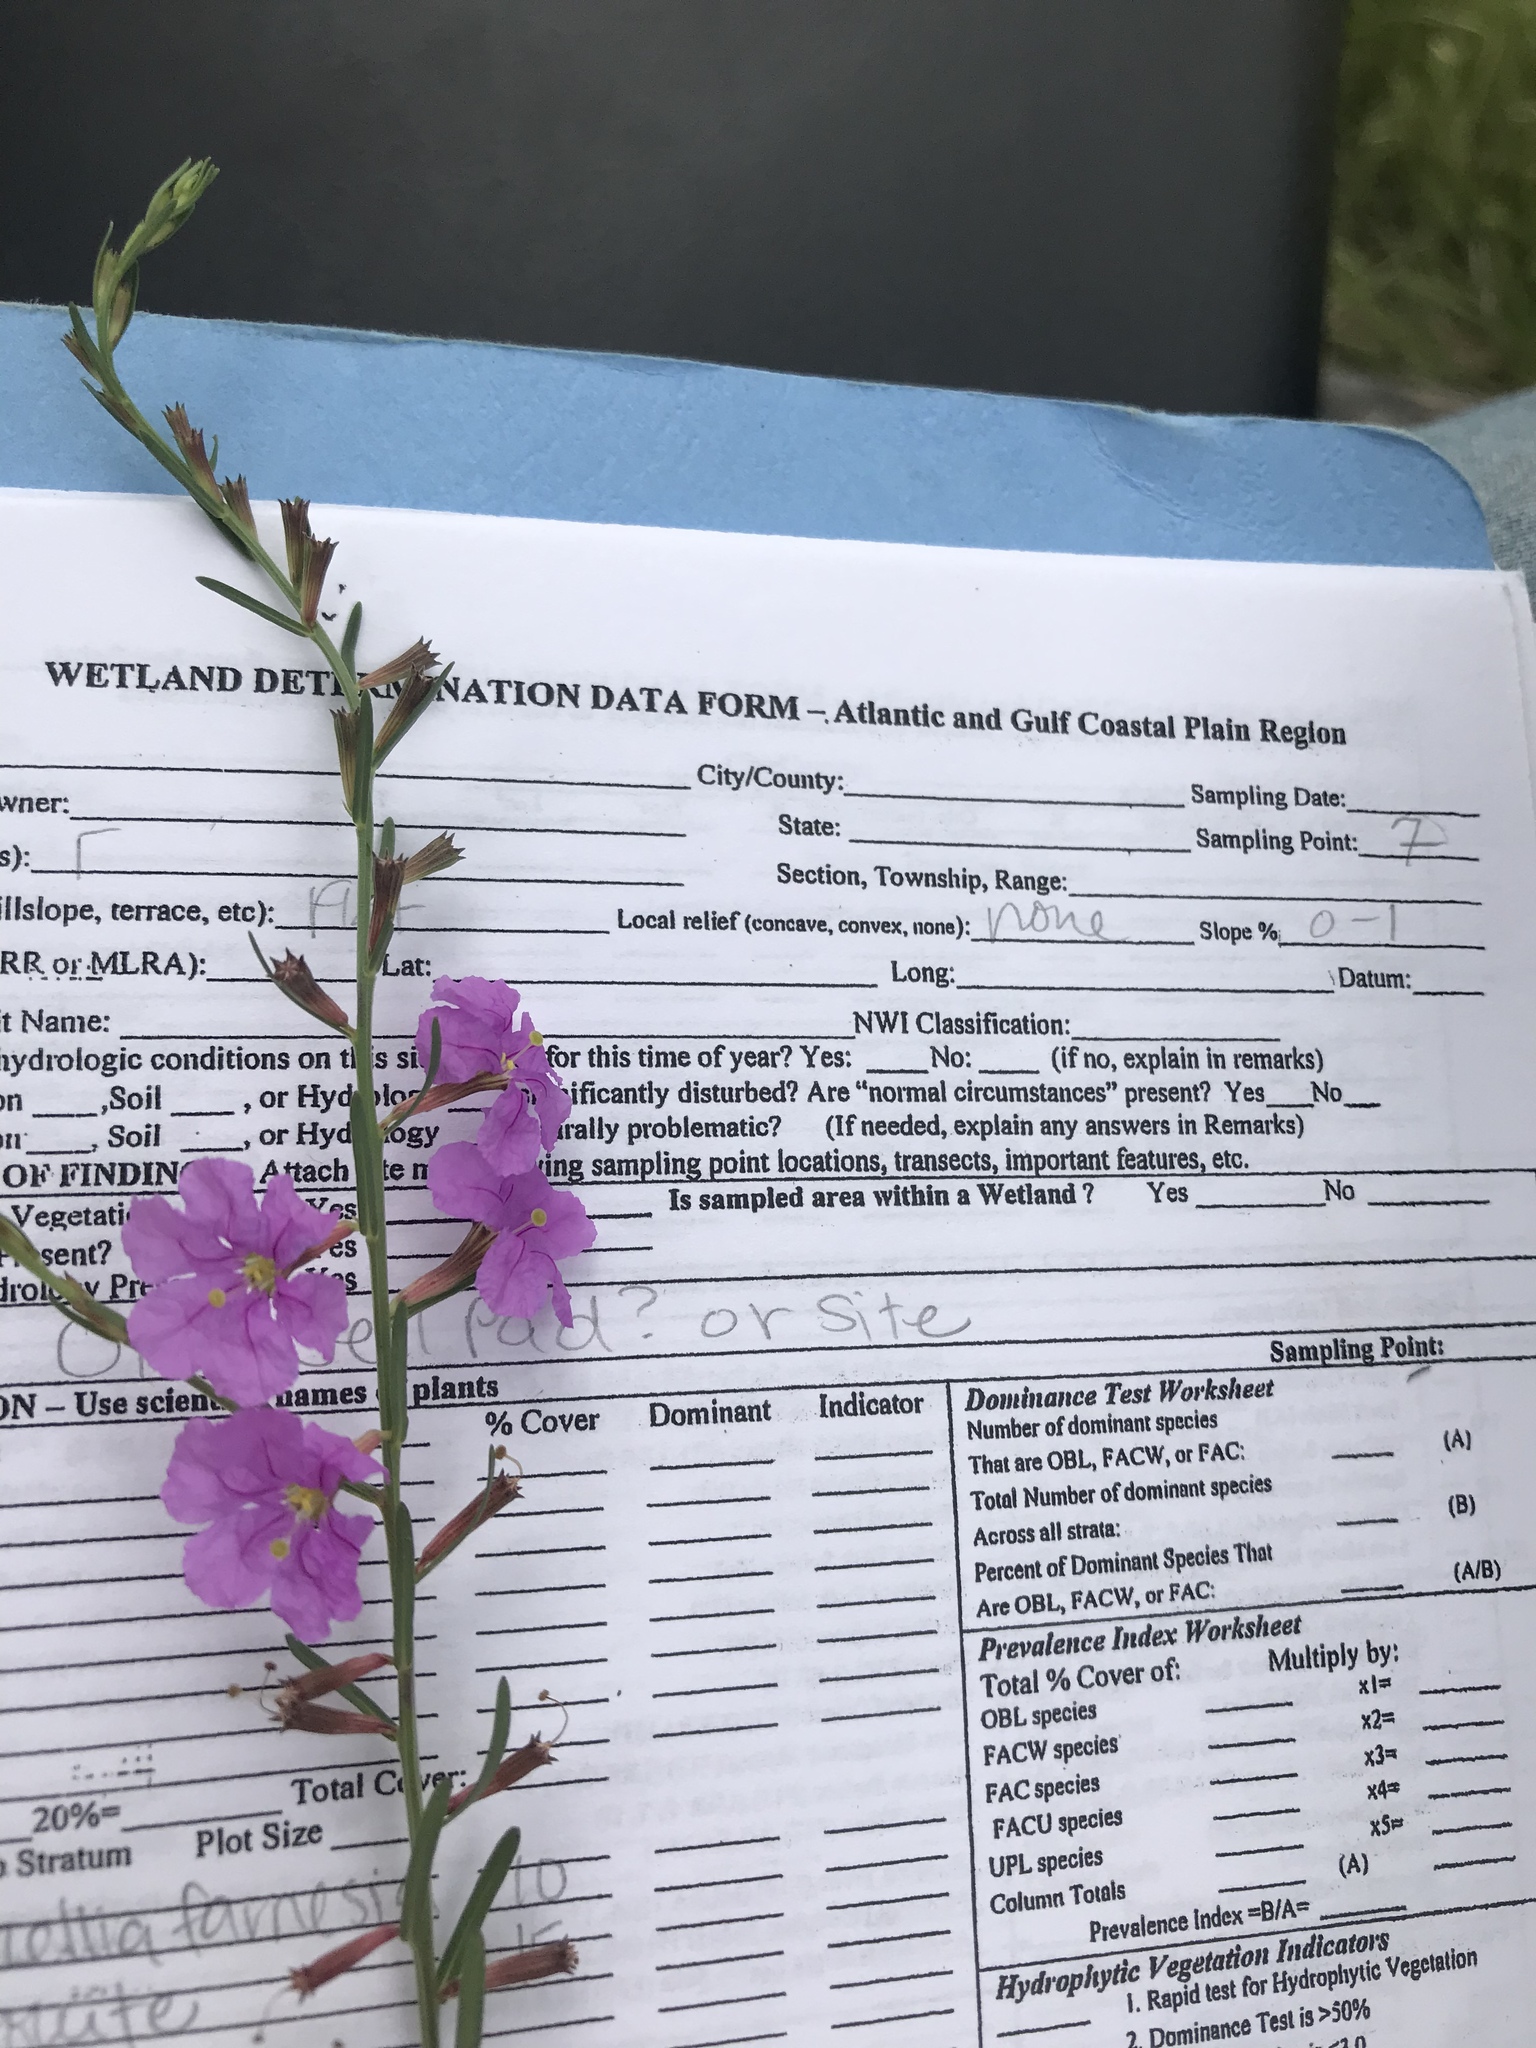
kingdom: Plantae
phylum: Tracheophyta
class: Magnoliopsida
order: Myrtales
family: Lythraceae
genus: Lythrum
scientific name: Lythrum californicum
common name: California loosestrife
